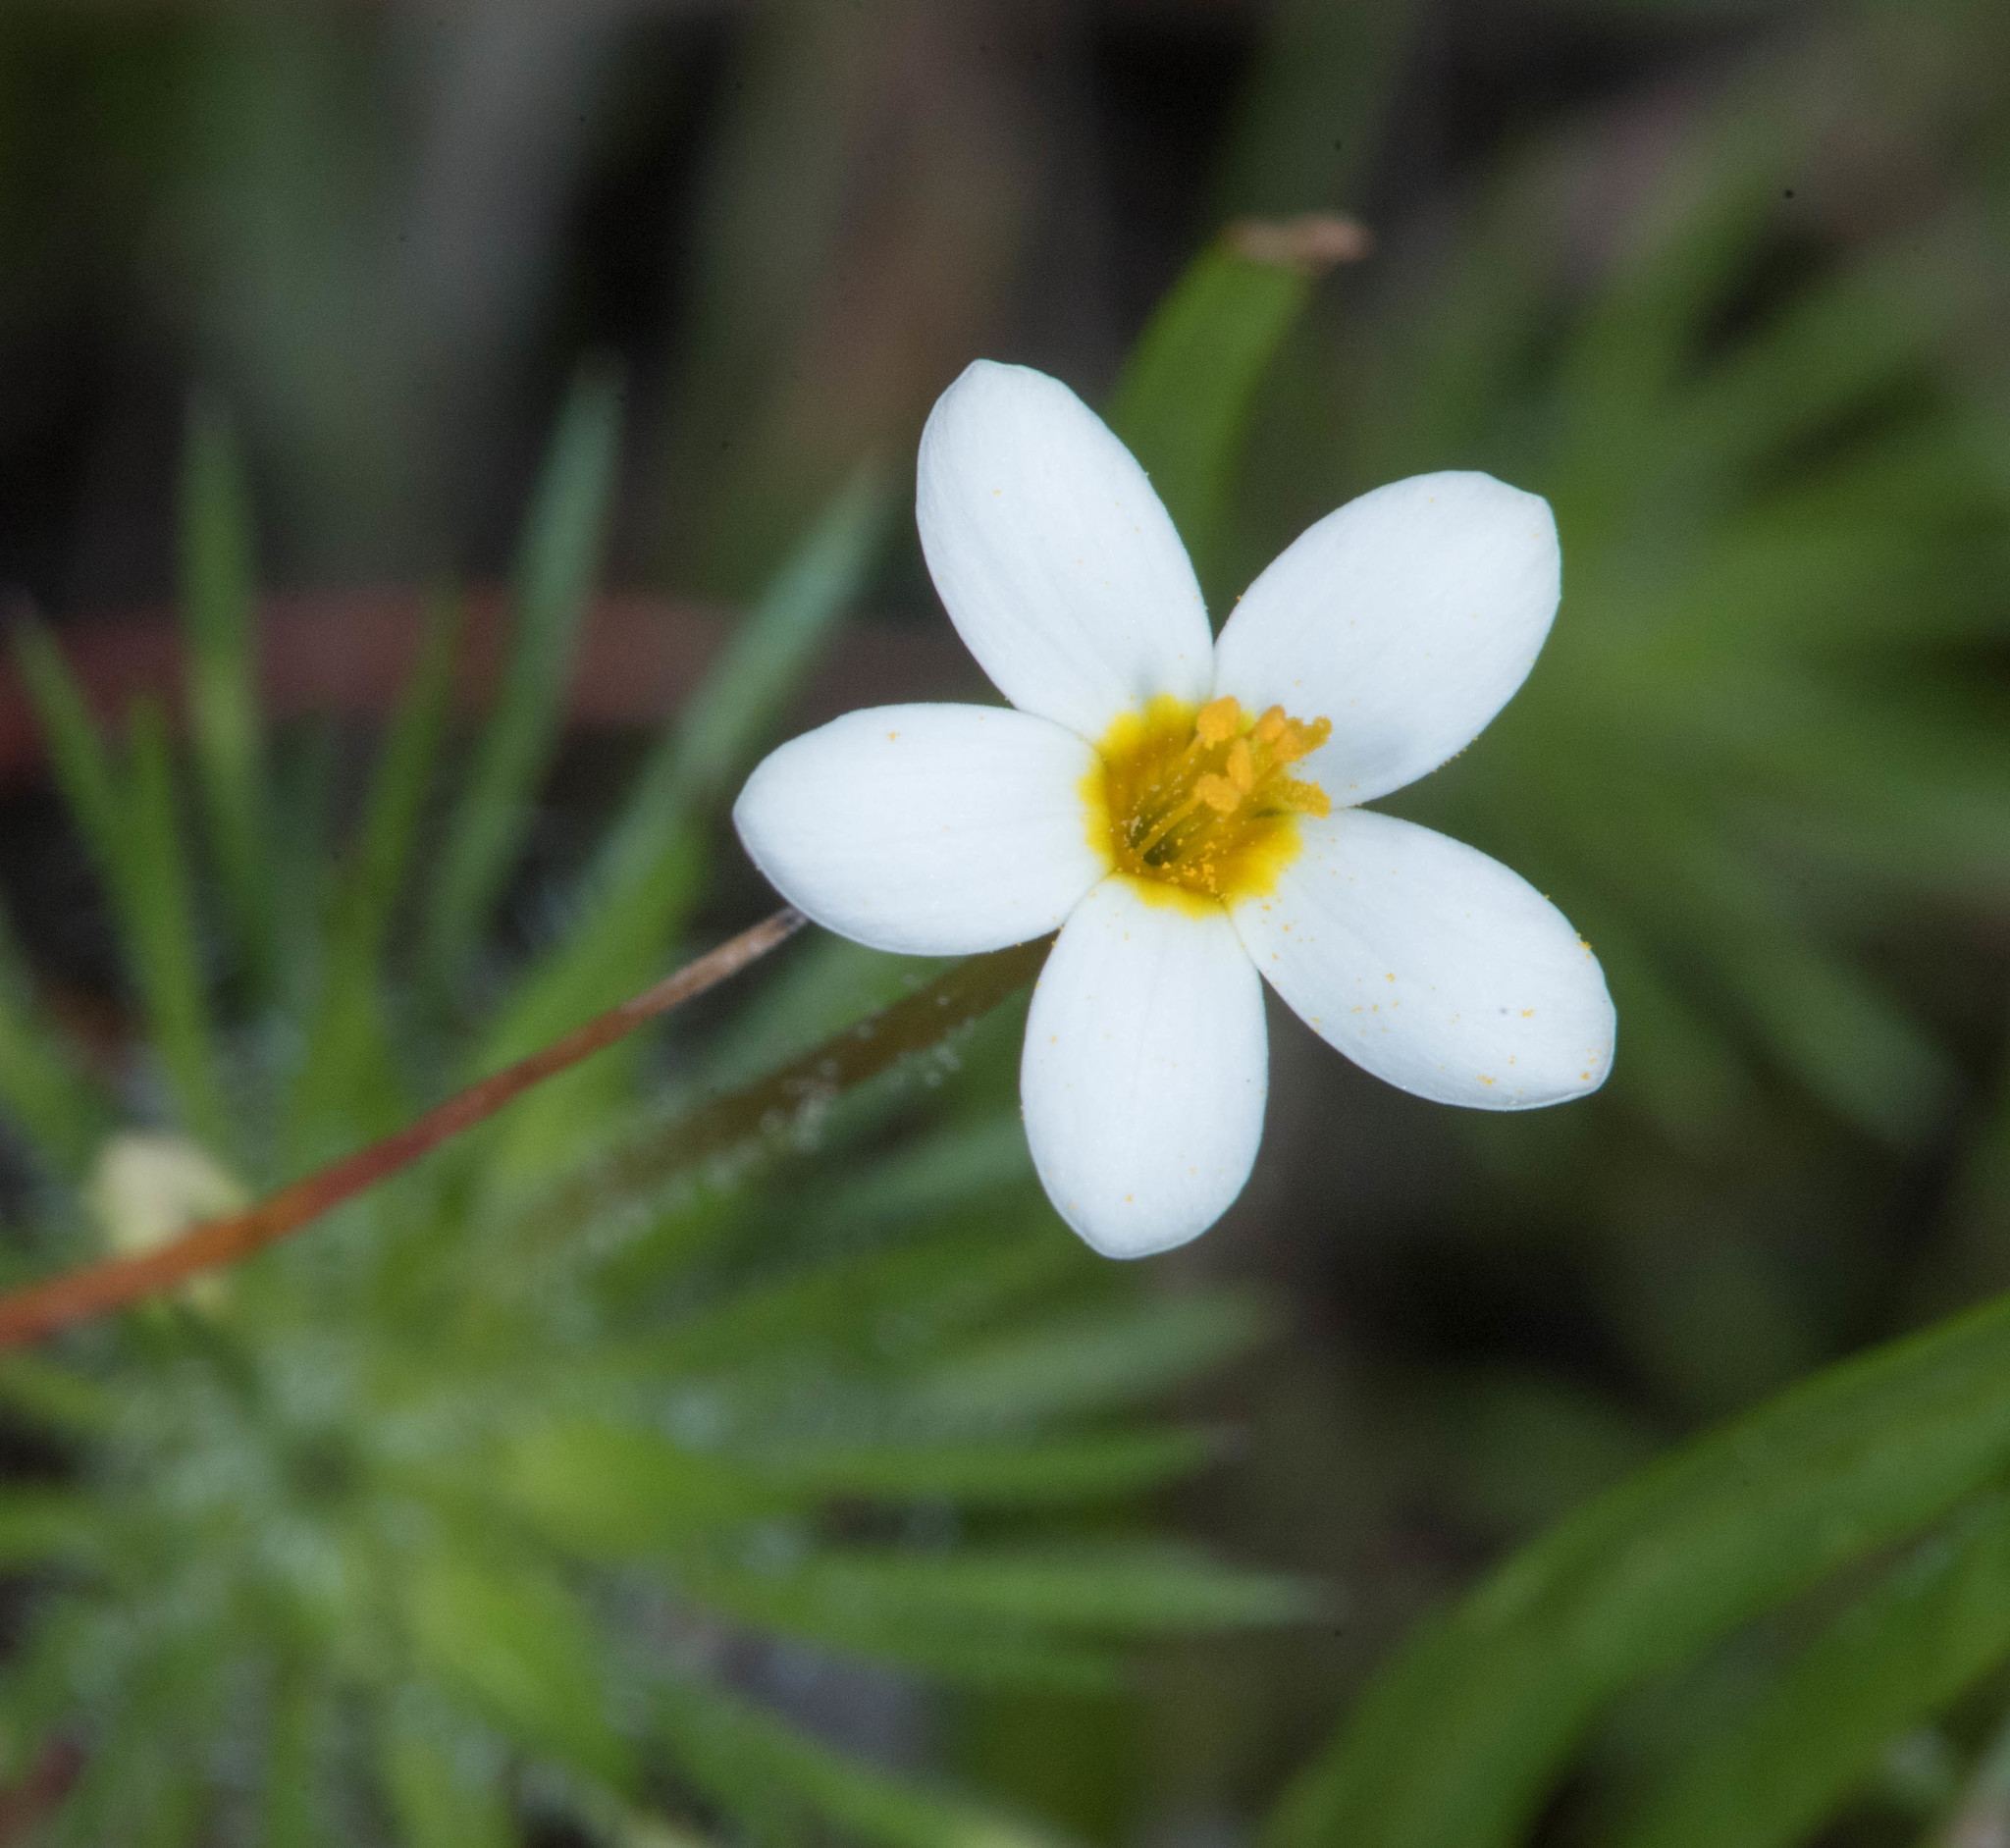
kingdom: Plantae
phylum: Tracheophyta
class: Magnoliopsida
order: Ericales
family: Polemoniaceae
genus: Leptosiphon
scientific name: Leptosiphon bicolor
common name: True babystars
